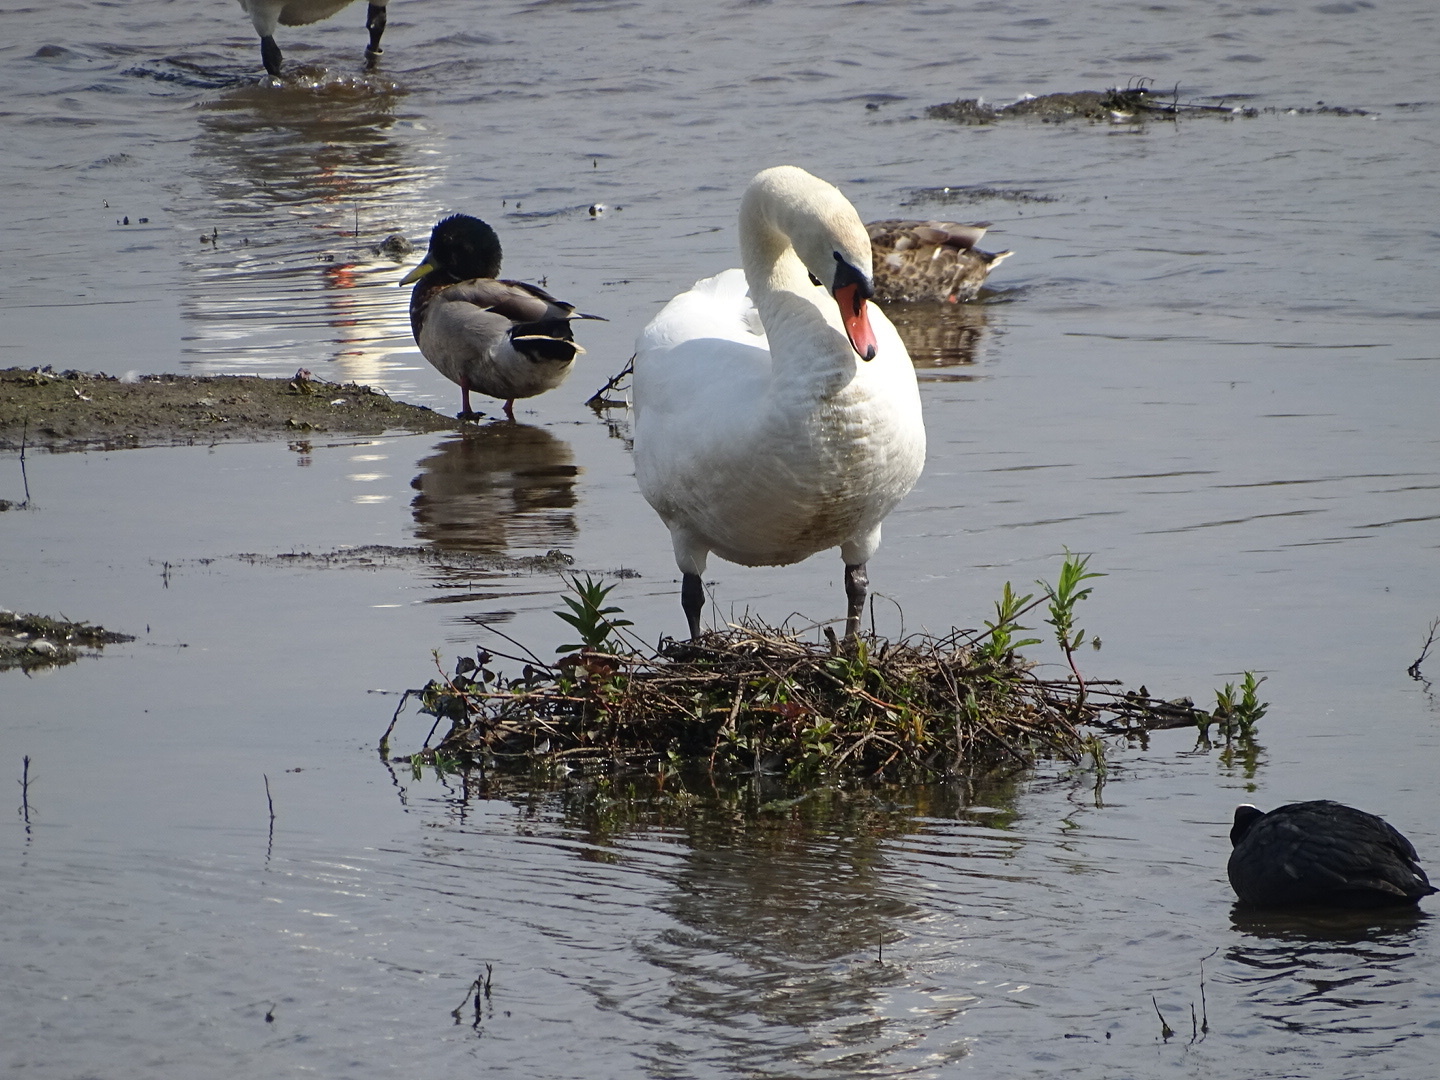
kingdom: Animalia
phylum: Chordata
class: Aves
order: Anseriformes
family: Anatidae
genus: Cygnus
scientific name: Cygnus olor
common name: Mute swan
